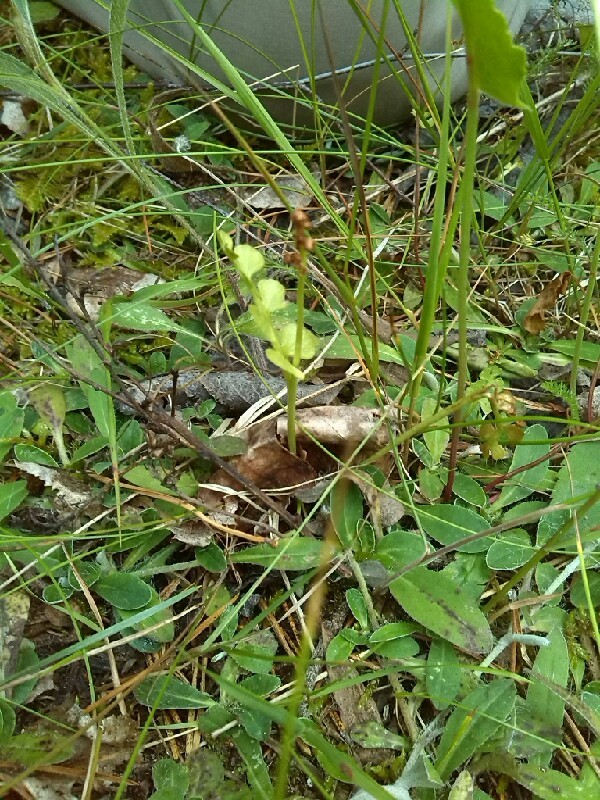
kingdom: Plantae
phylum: Tracheophyta
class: Polypodiopsida
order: Ophioglossales
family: Ophioglossaceae
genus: Botrychium
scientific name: Botrychium lunaria
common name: Moonwort
